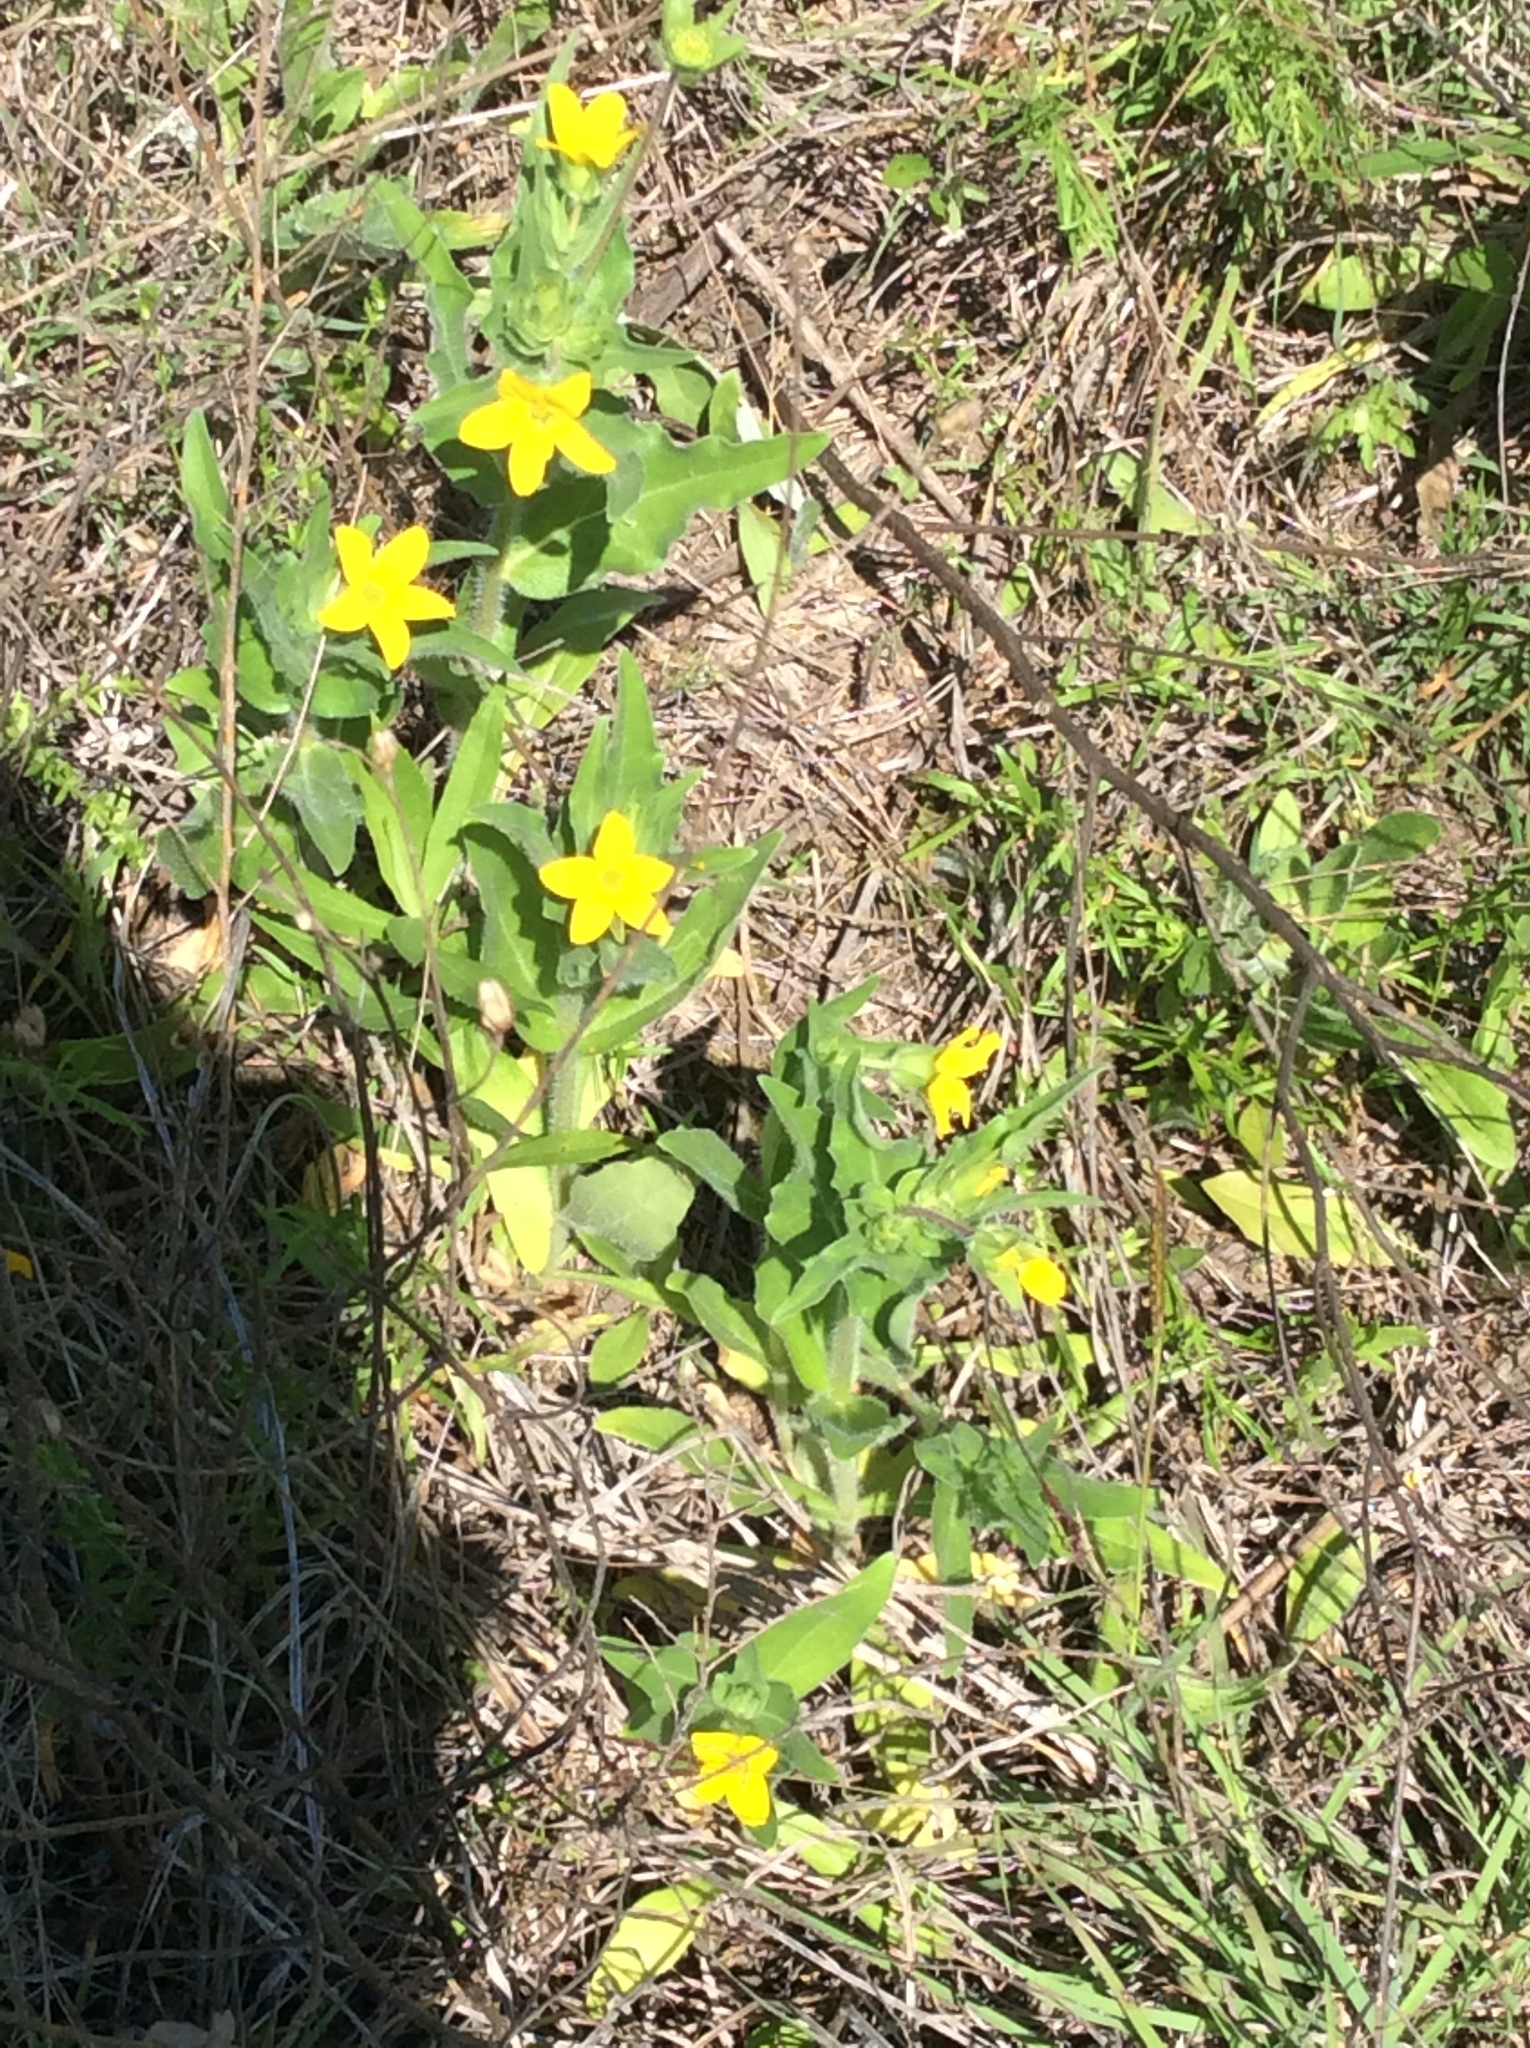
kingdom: Plantae
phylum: Tracheophyta
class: Magnoliopsida
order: Asterales
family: Asteraceae
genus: Lindheimera
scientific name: Lindheimera texana
